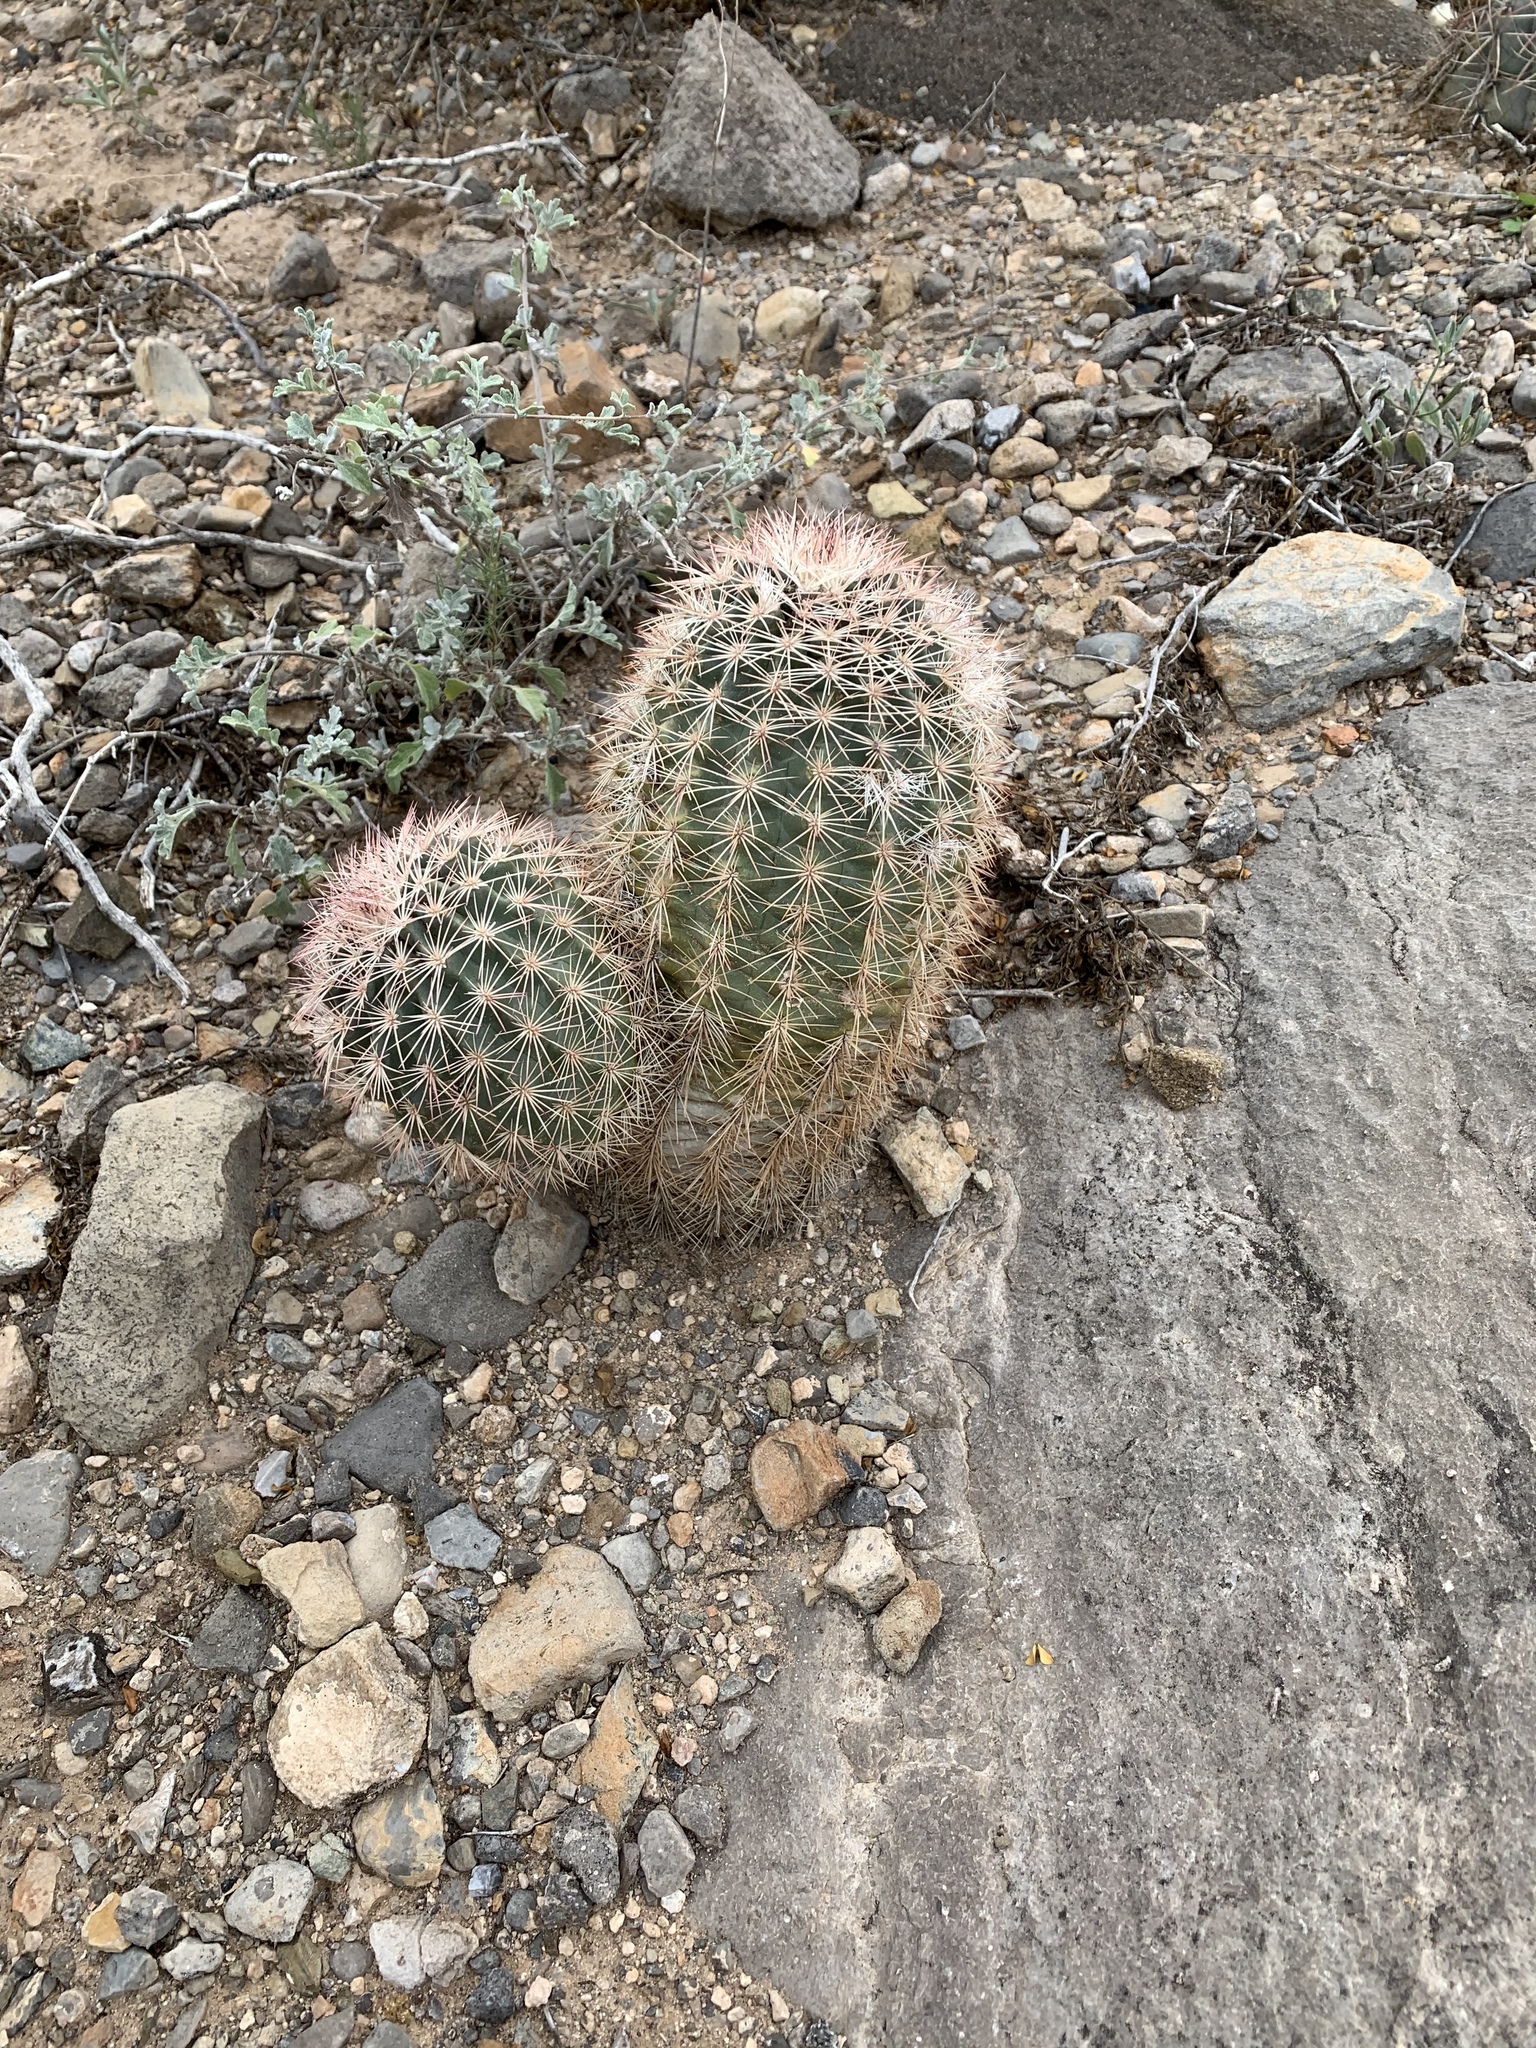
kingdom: Plantae
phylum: Tracheophyta
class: Magnoliopsida
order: Caryophyllales
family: Cactaceae
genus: Echinocereus
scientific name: Echinocereus dasyacanthus
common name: Spiny hedgehog cactus
